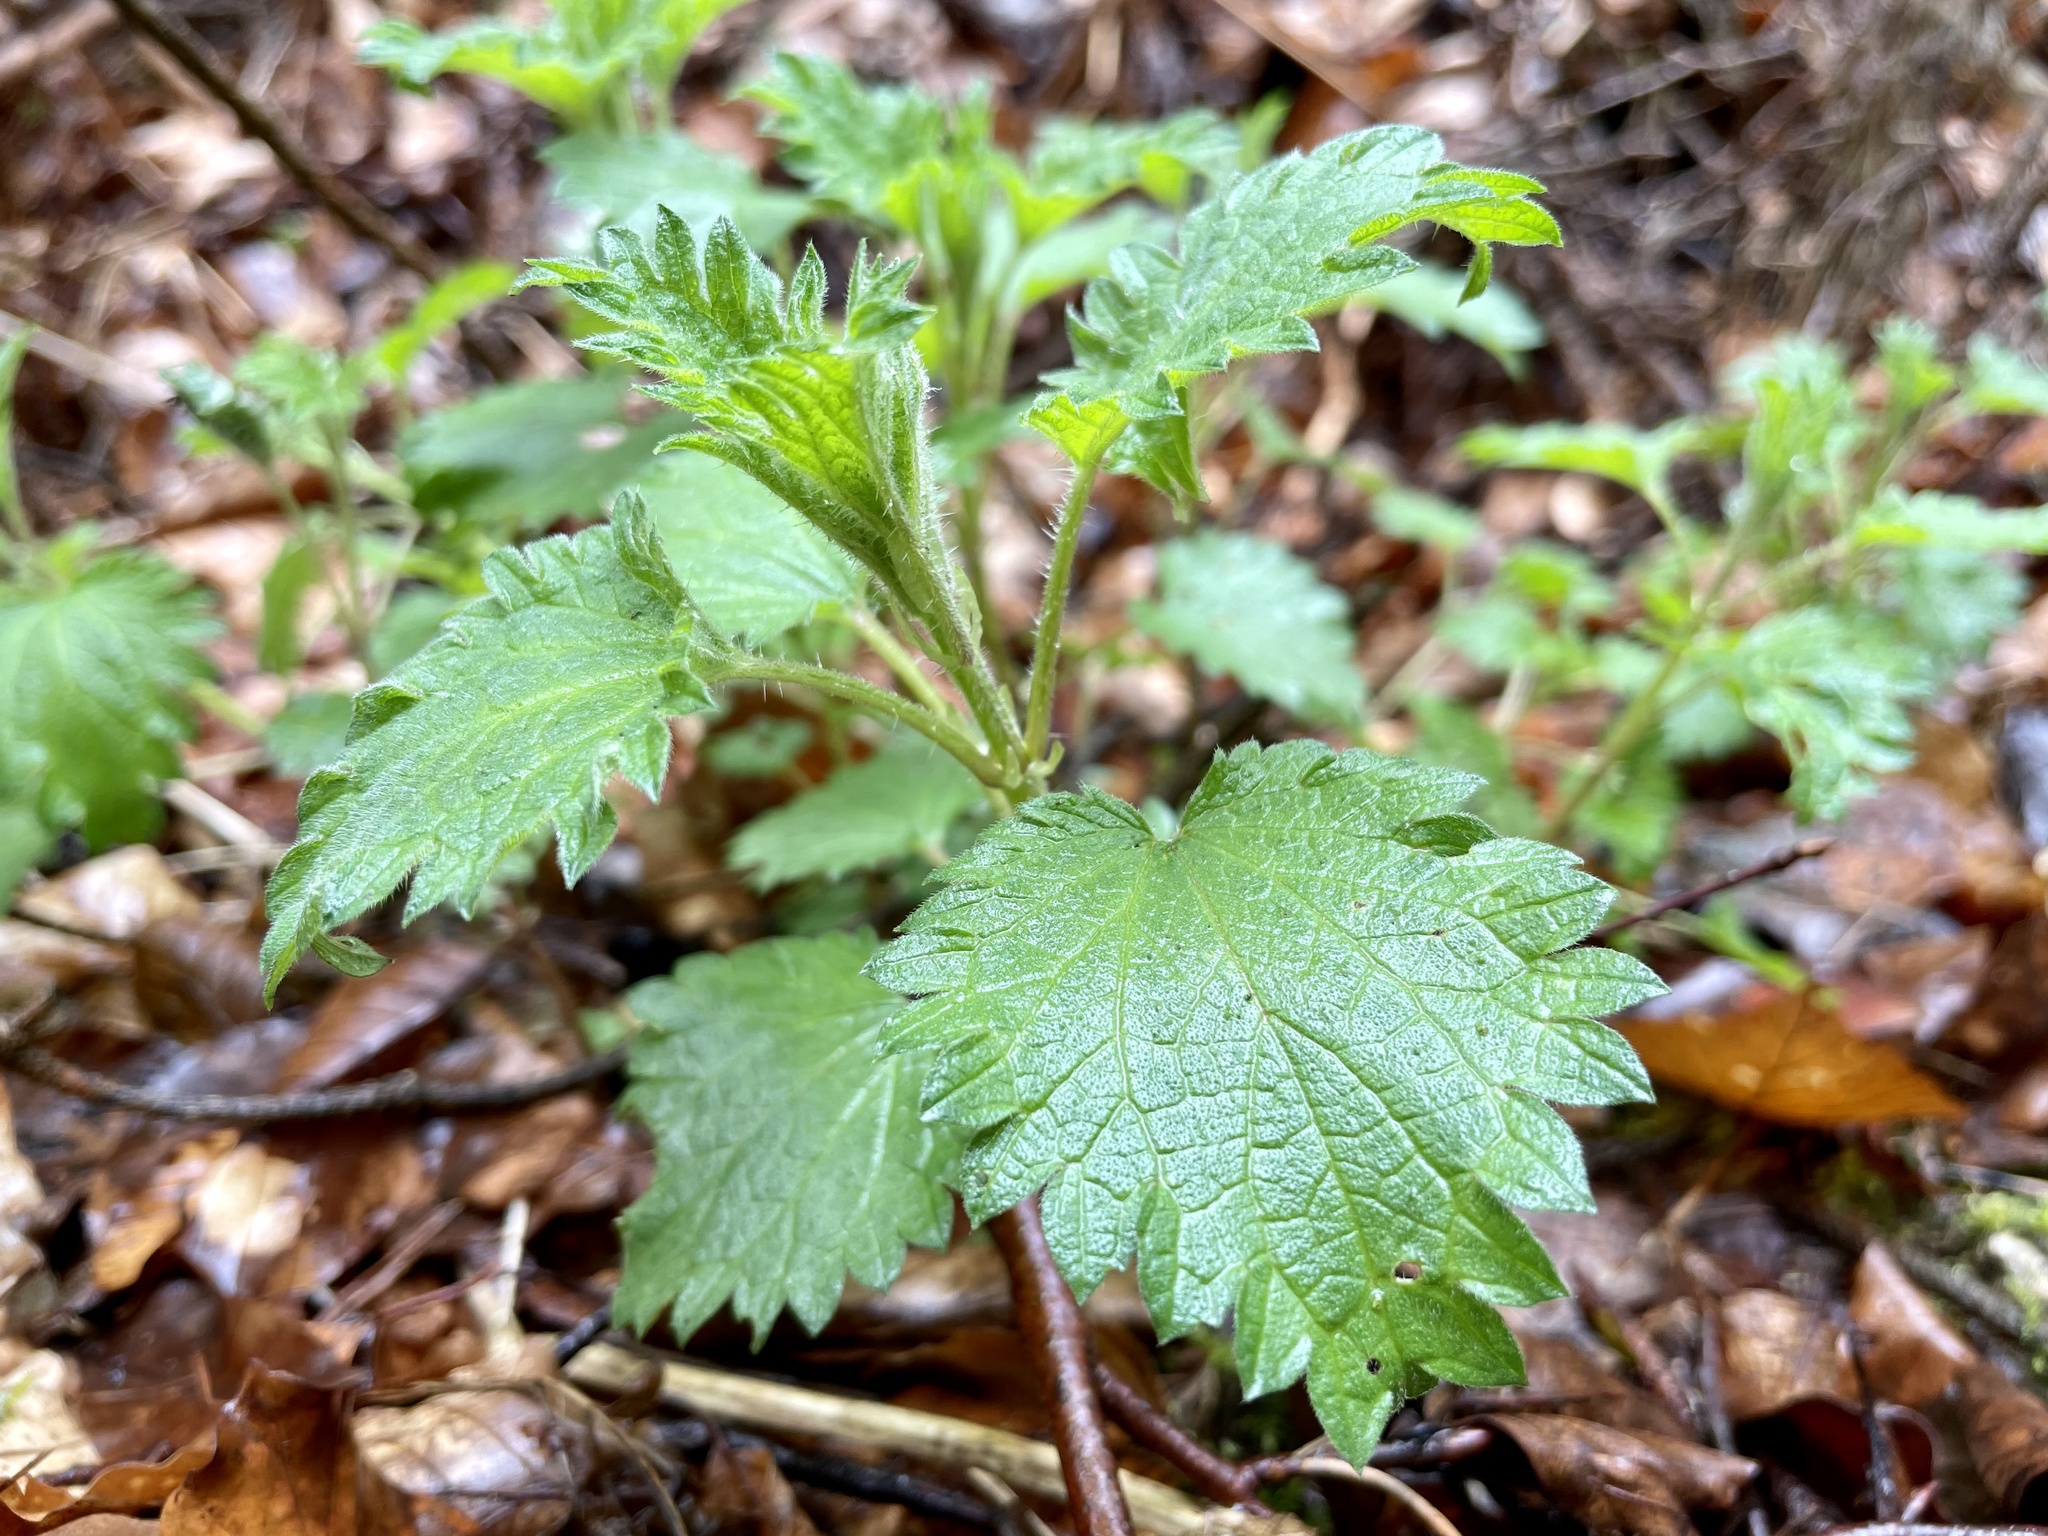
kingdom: Plantae
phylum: Tracheophyta
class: Magnoliopsida
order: Rosales
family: Urticaceae
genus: Urtica
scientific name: Urtica dioica
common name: Common nettle
